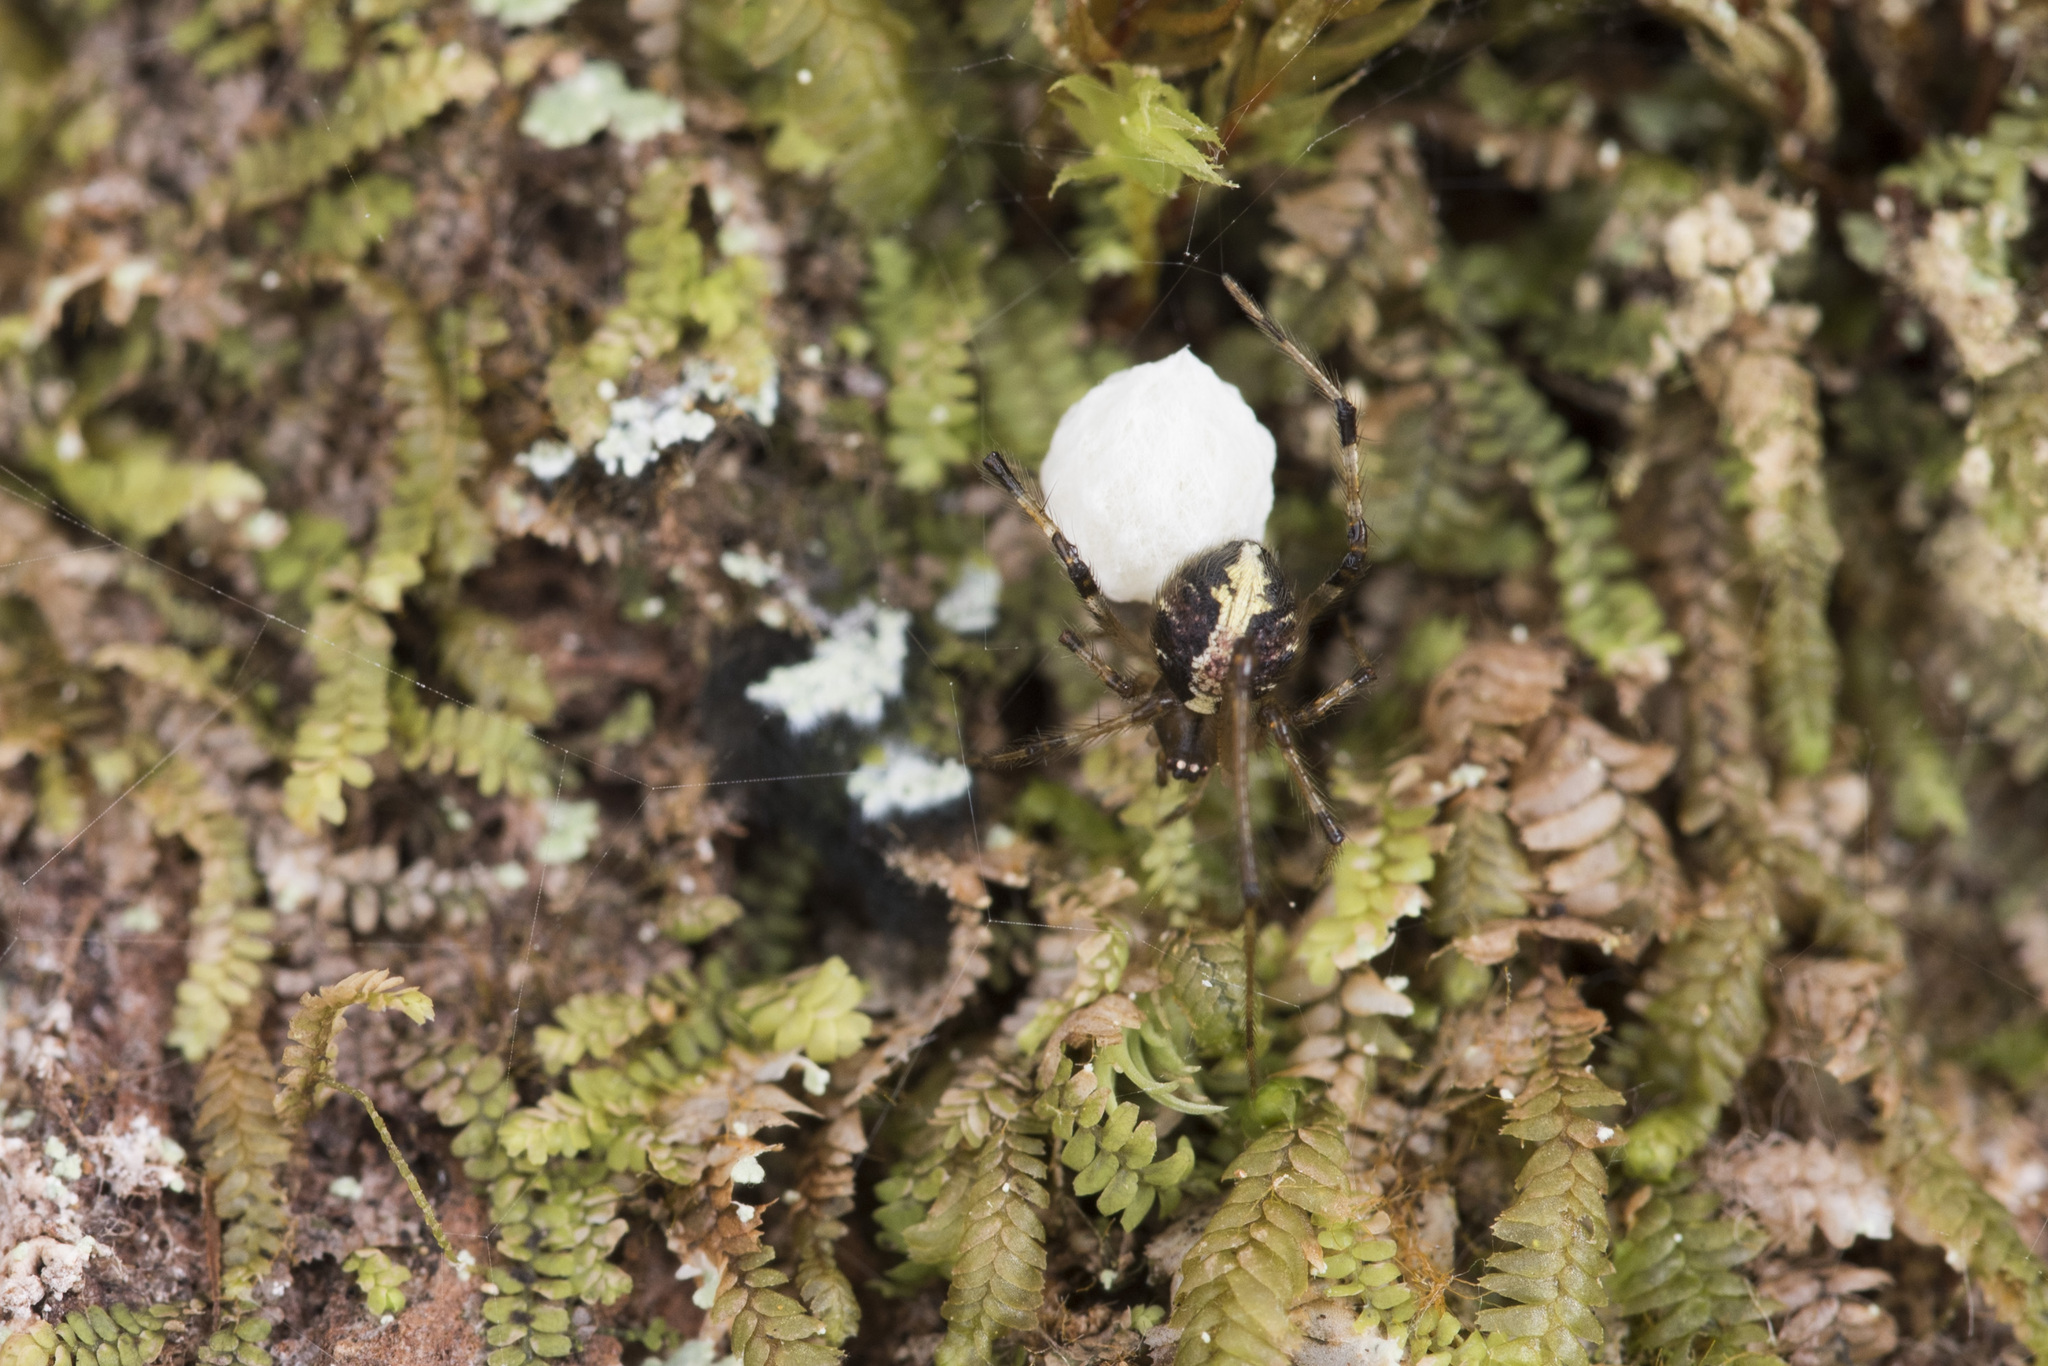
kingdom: Animalia
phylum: Arthropoda
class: Arachnida
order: Araneae
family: Theridiidae
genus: Nipponidion
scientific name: Nipponidion yaeyamense
